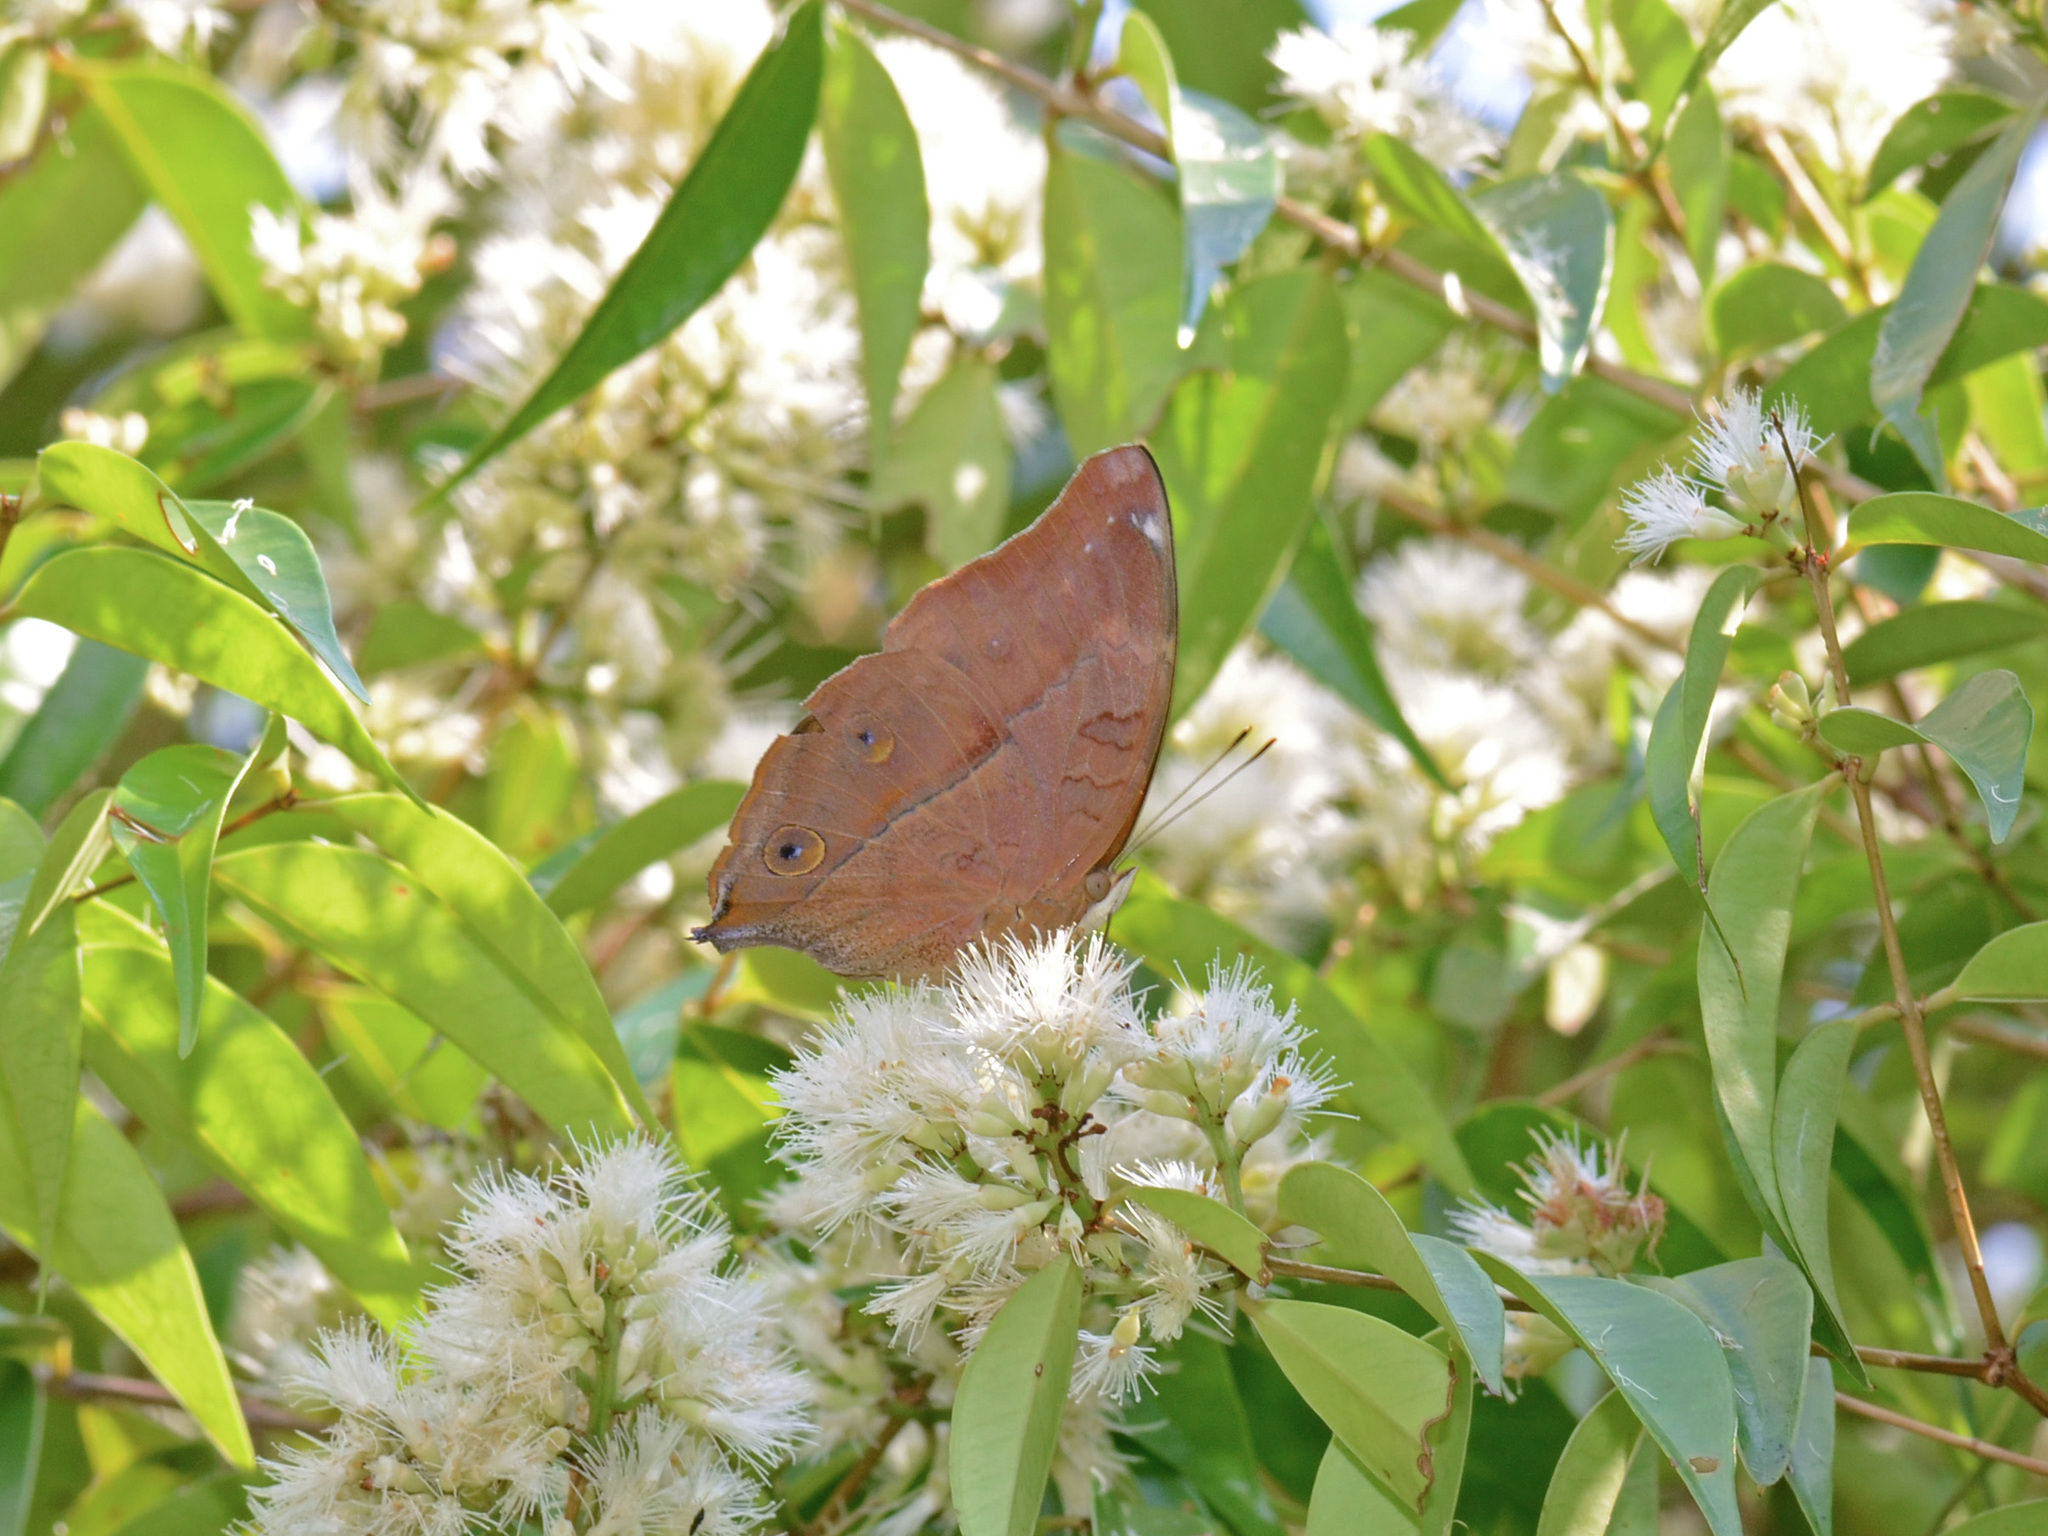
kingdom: Animalia
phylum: Arthropoda
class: Insecta
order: Lepidoptera
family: Nymphalidae
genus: Doleschallia
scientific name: Doleschallia bisaltide
